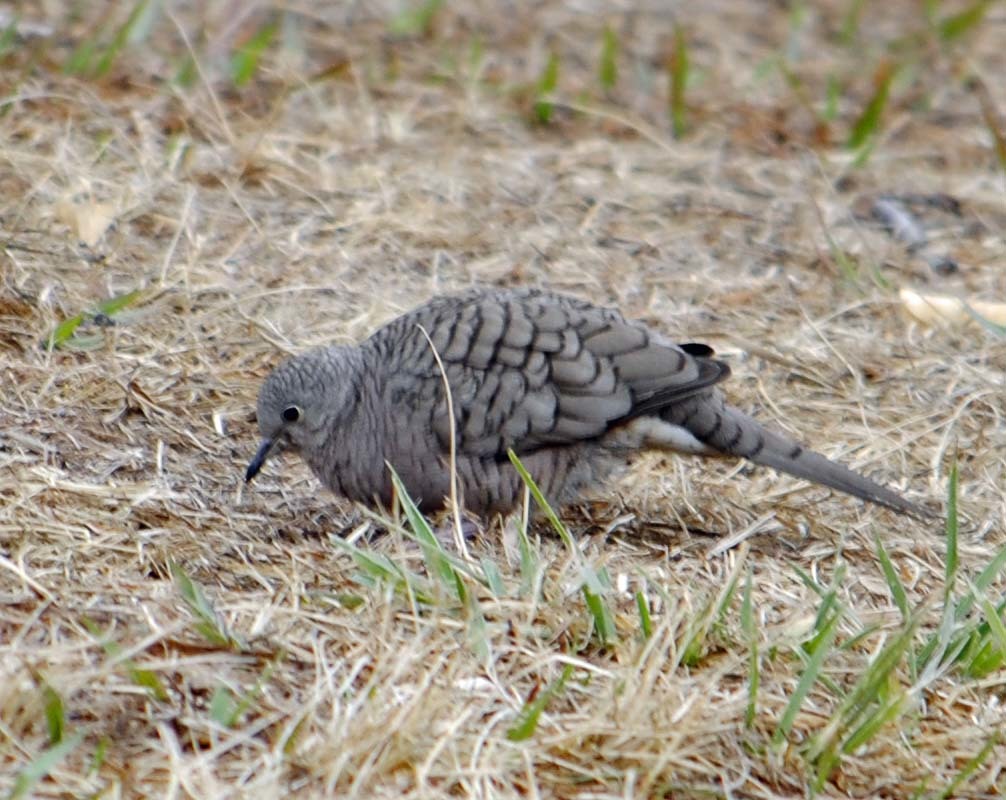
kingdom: Animalia
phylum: Chordata
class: Aves
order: Columbiformes
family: Columbidae
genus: Columbina
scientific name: Columbina inca
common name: Inca dove
